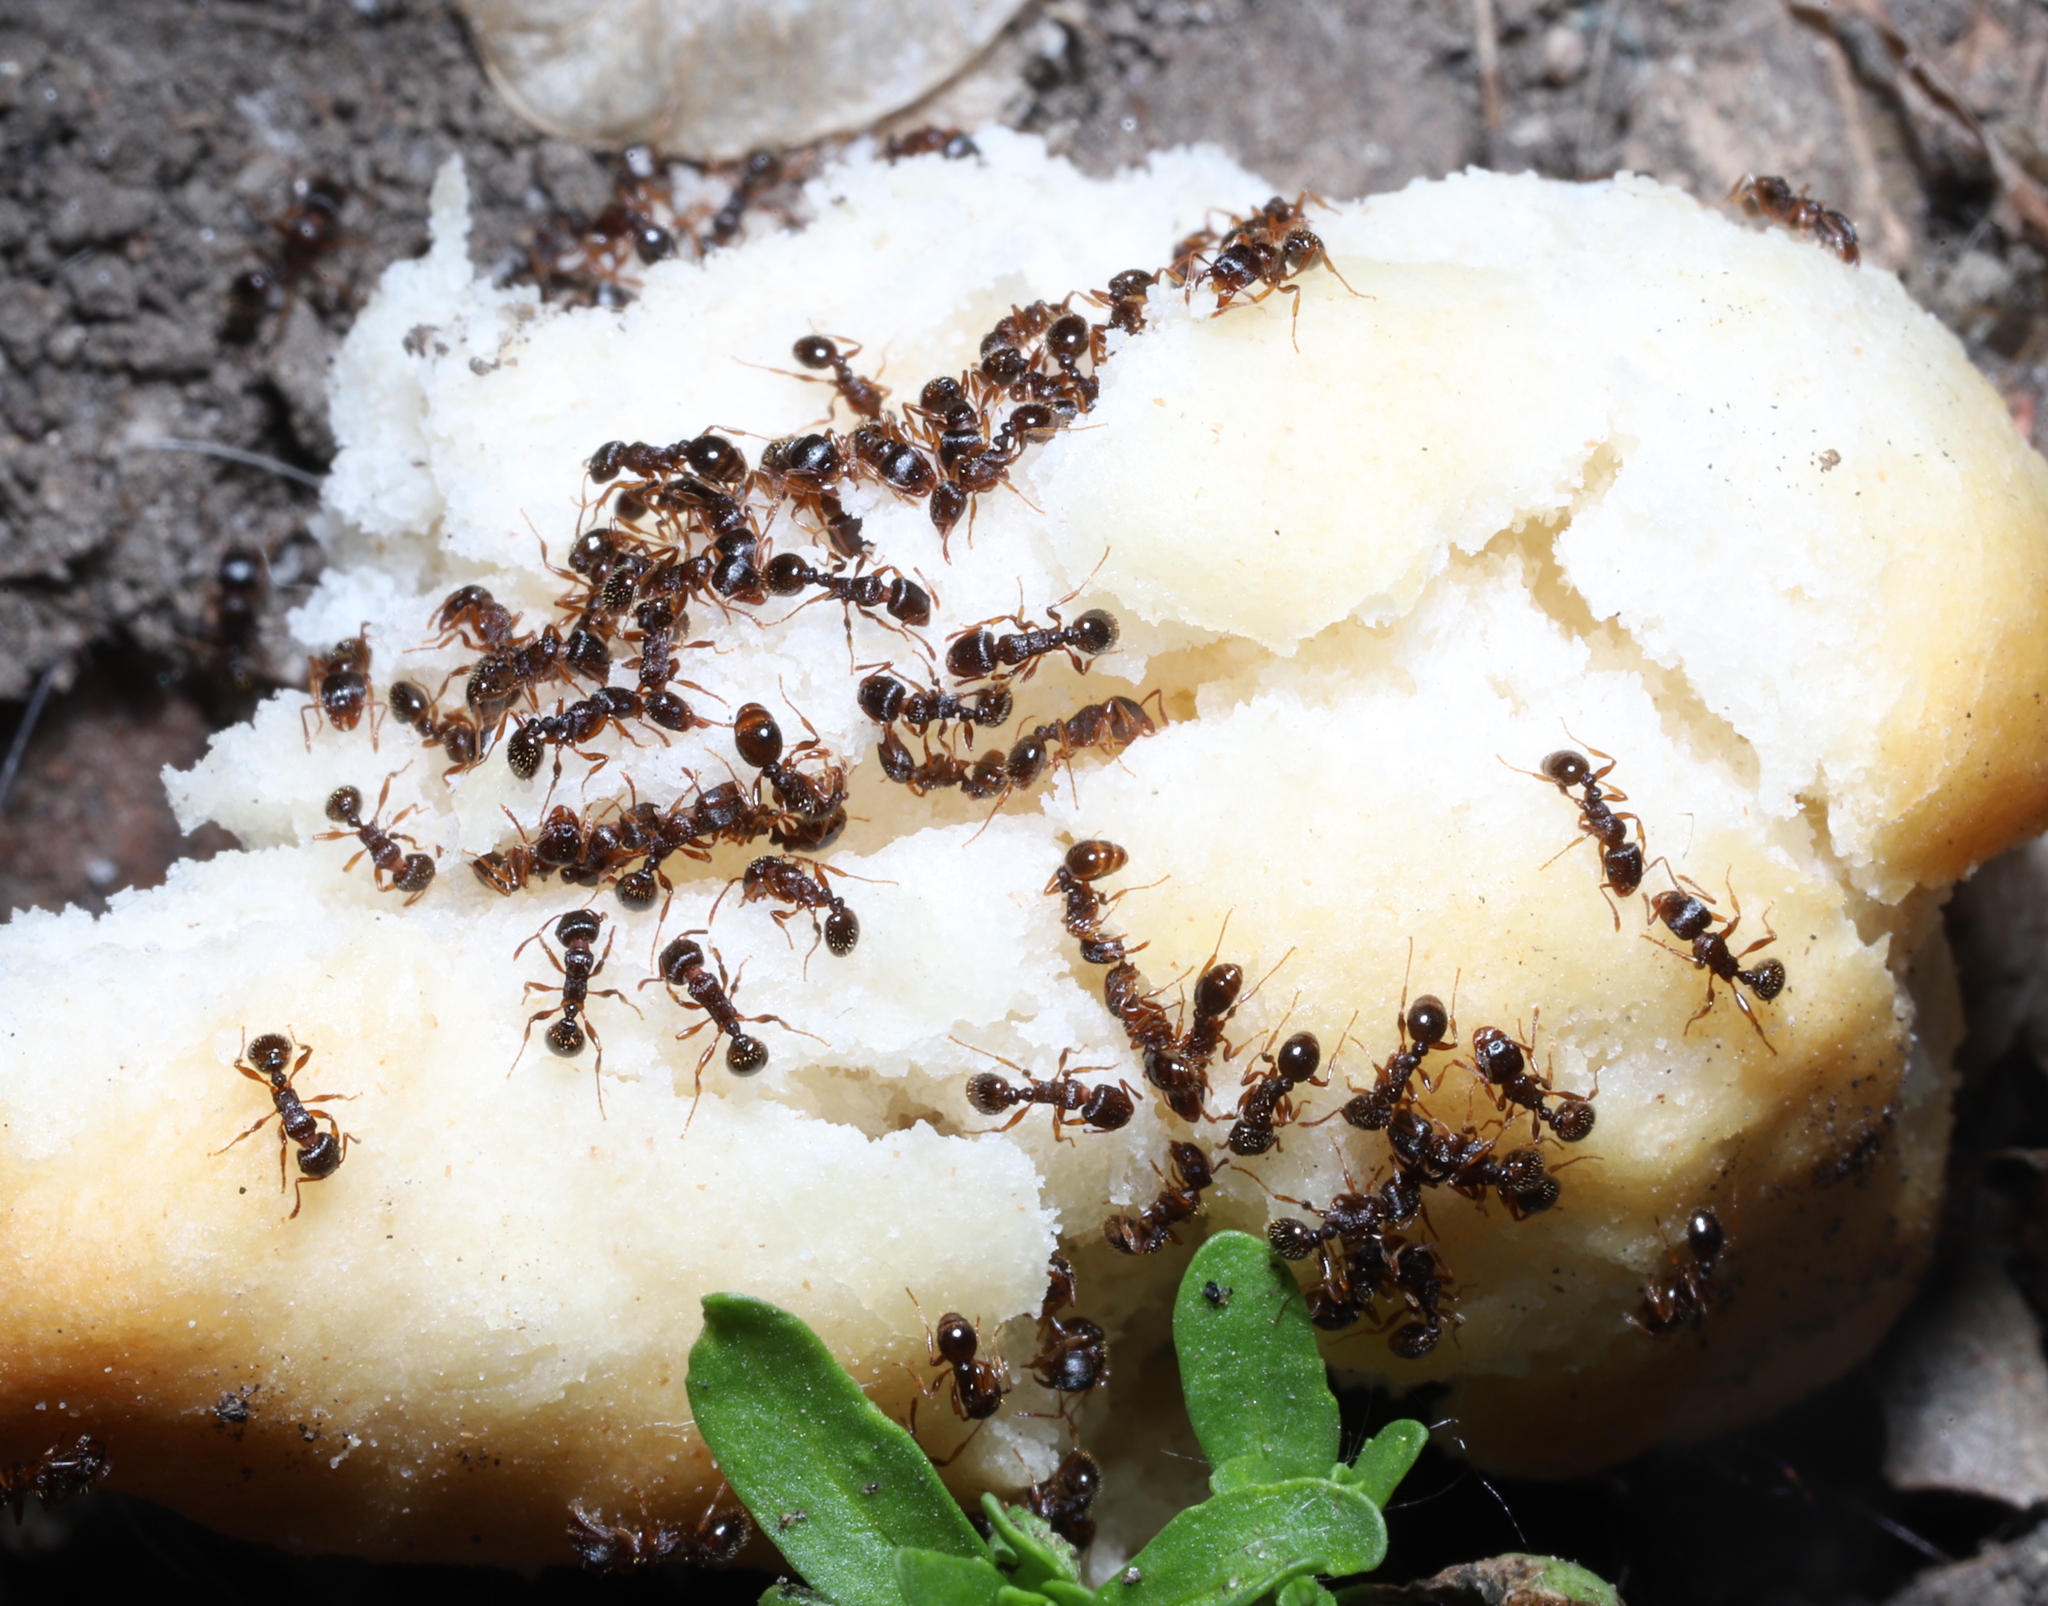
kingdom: Animalia
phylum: Arthropoda
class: Insecta
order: Hymenoptera
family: Formicidae
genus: Tetramorium
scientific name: Tetramorium immigrans
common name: Pavement ant
